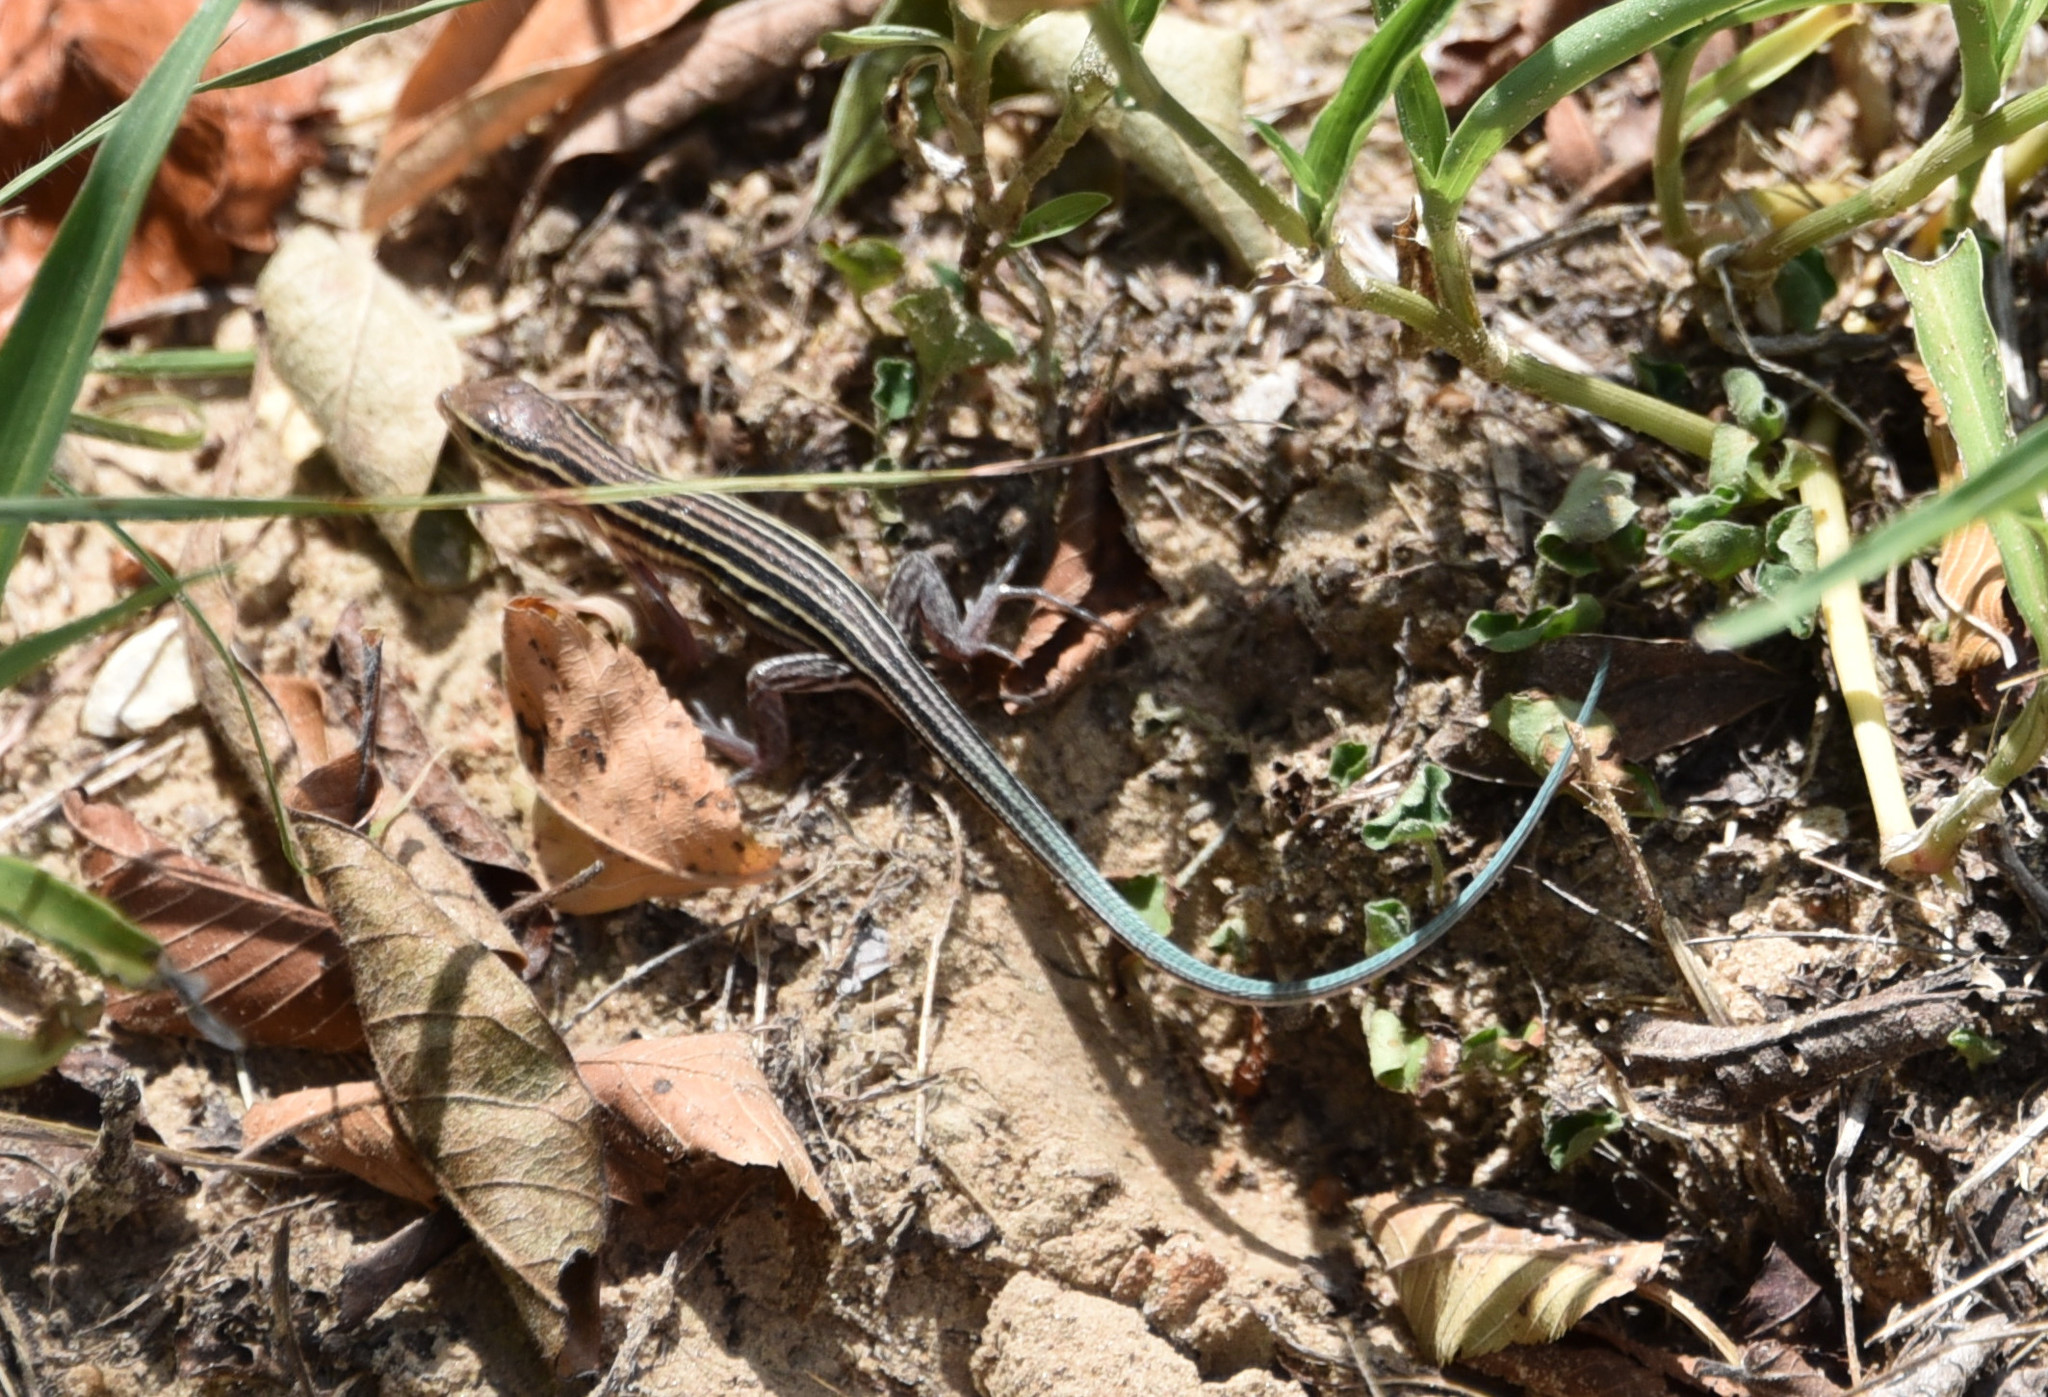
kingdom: Animalia
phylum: Chordata
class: Squamata
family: Teiidae
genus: Aspidoscelis
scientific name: Aspidoscelis sexlineatus
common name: Six-lined racerunner
